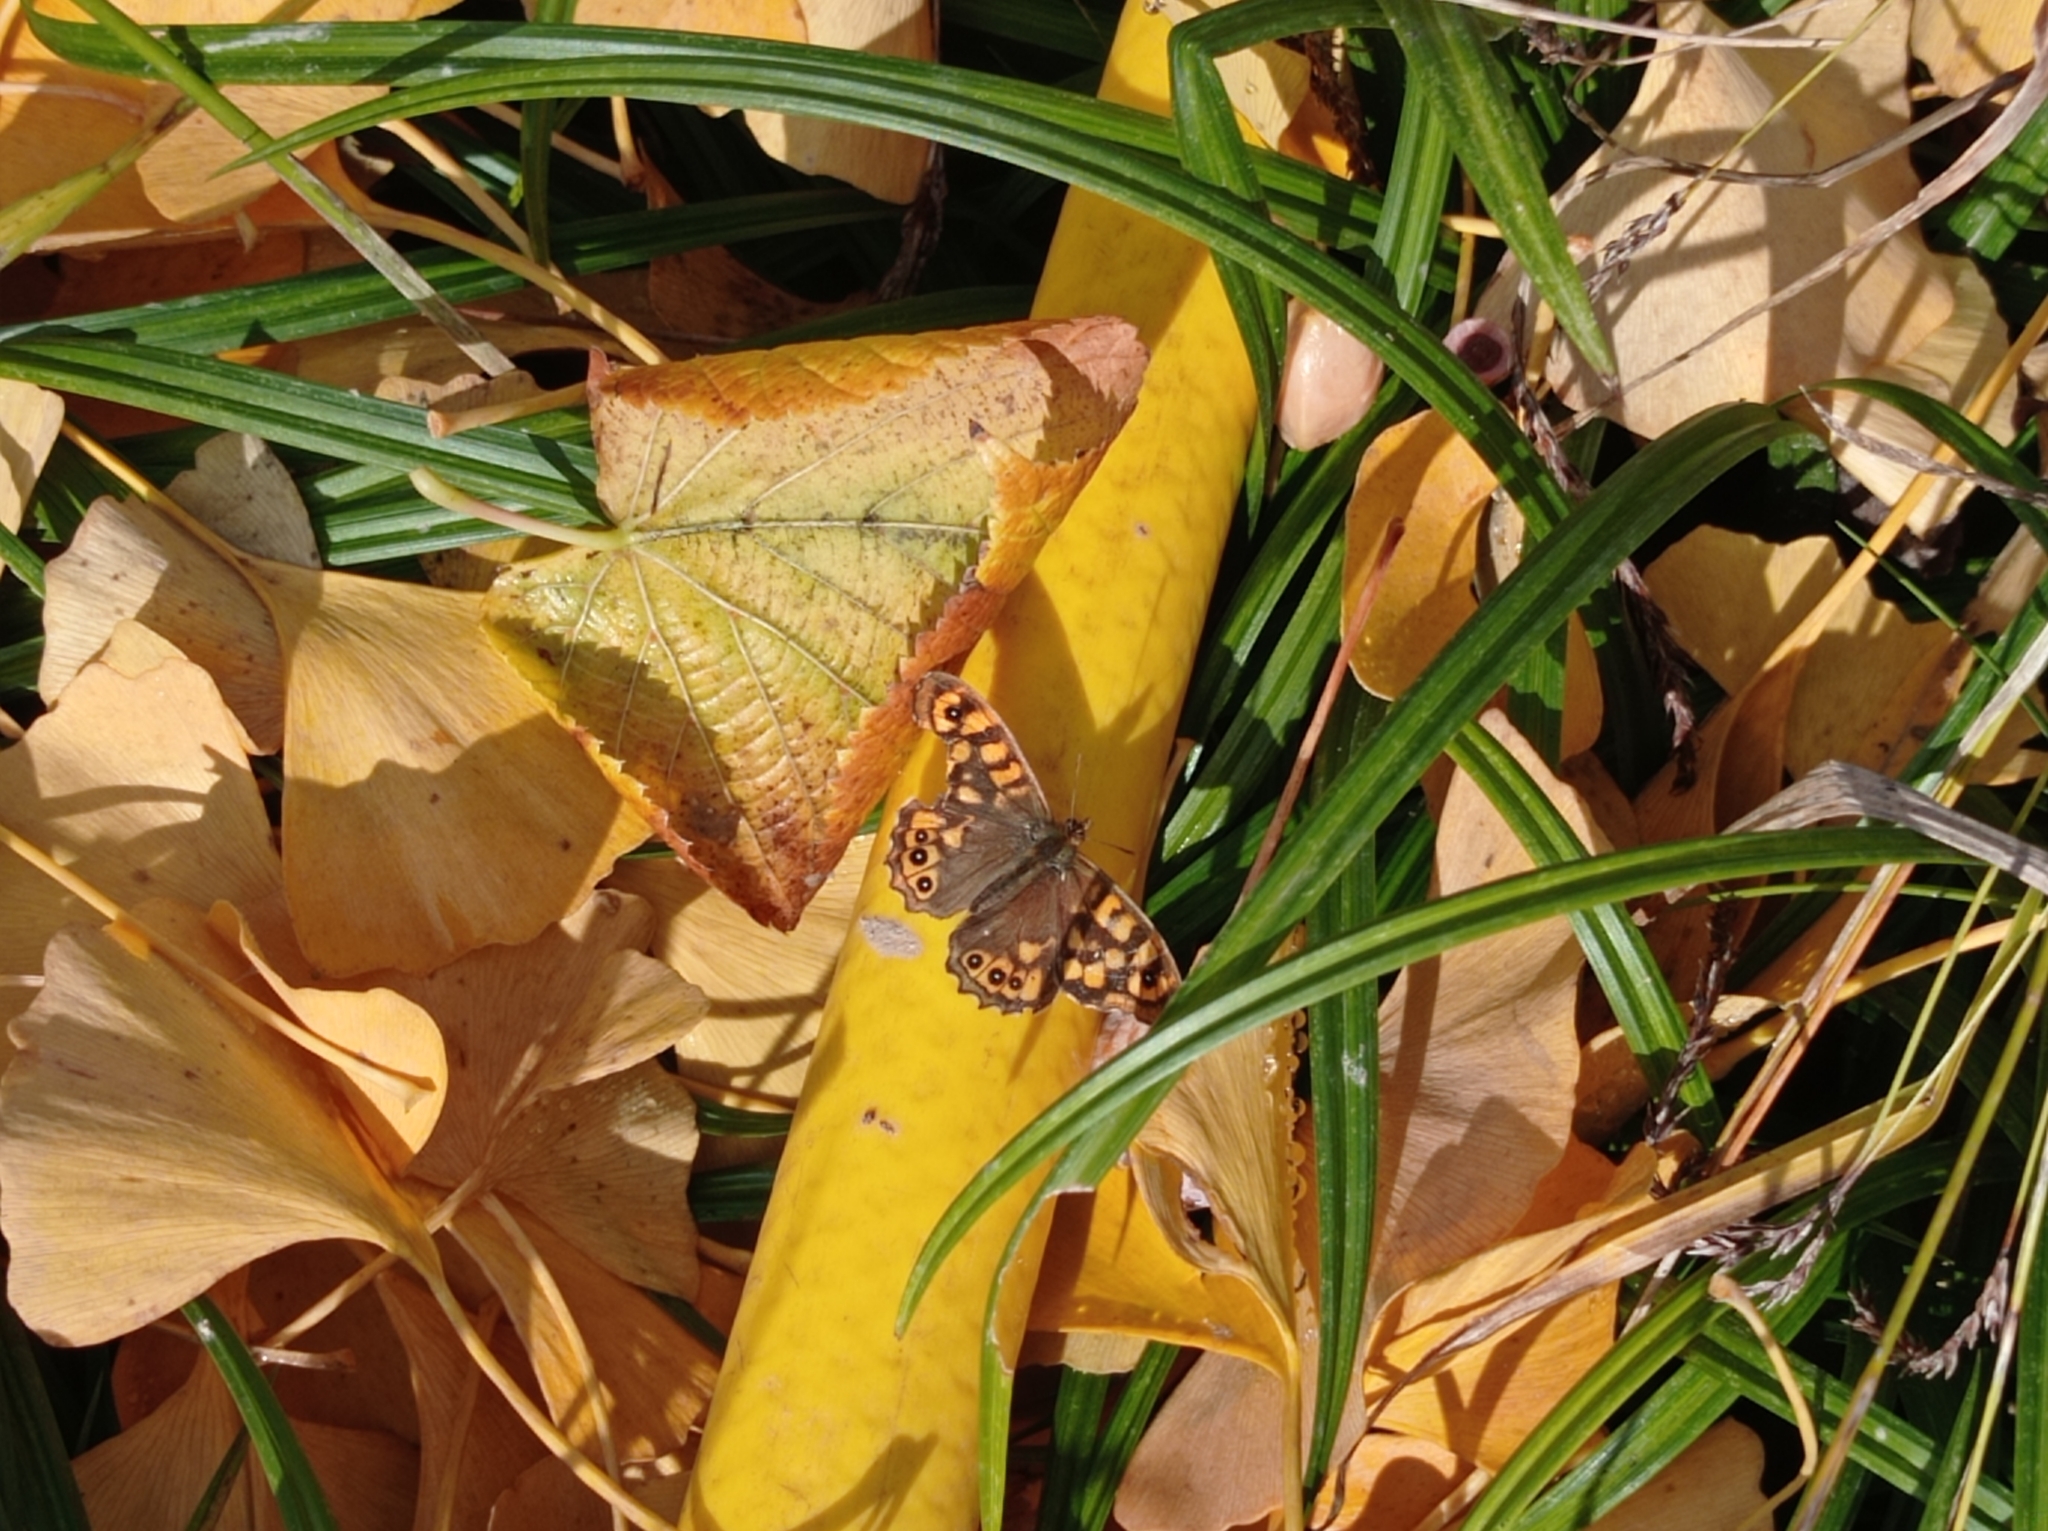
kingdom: Animalia
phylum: Arthropoda
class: Insecta
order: Lepidoptera
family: Nymphalidae
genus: Pararge
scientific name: Pararge aegeria
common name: Speckled wood
